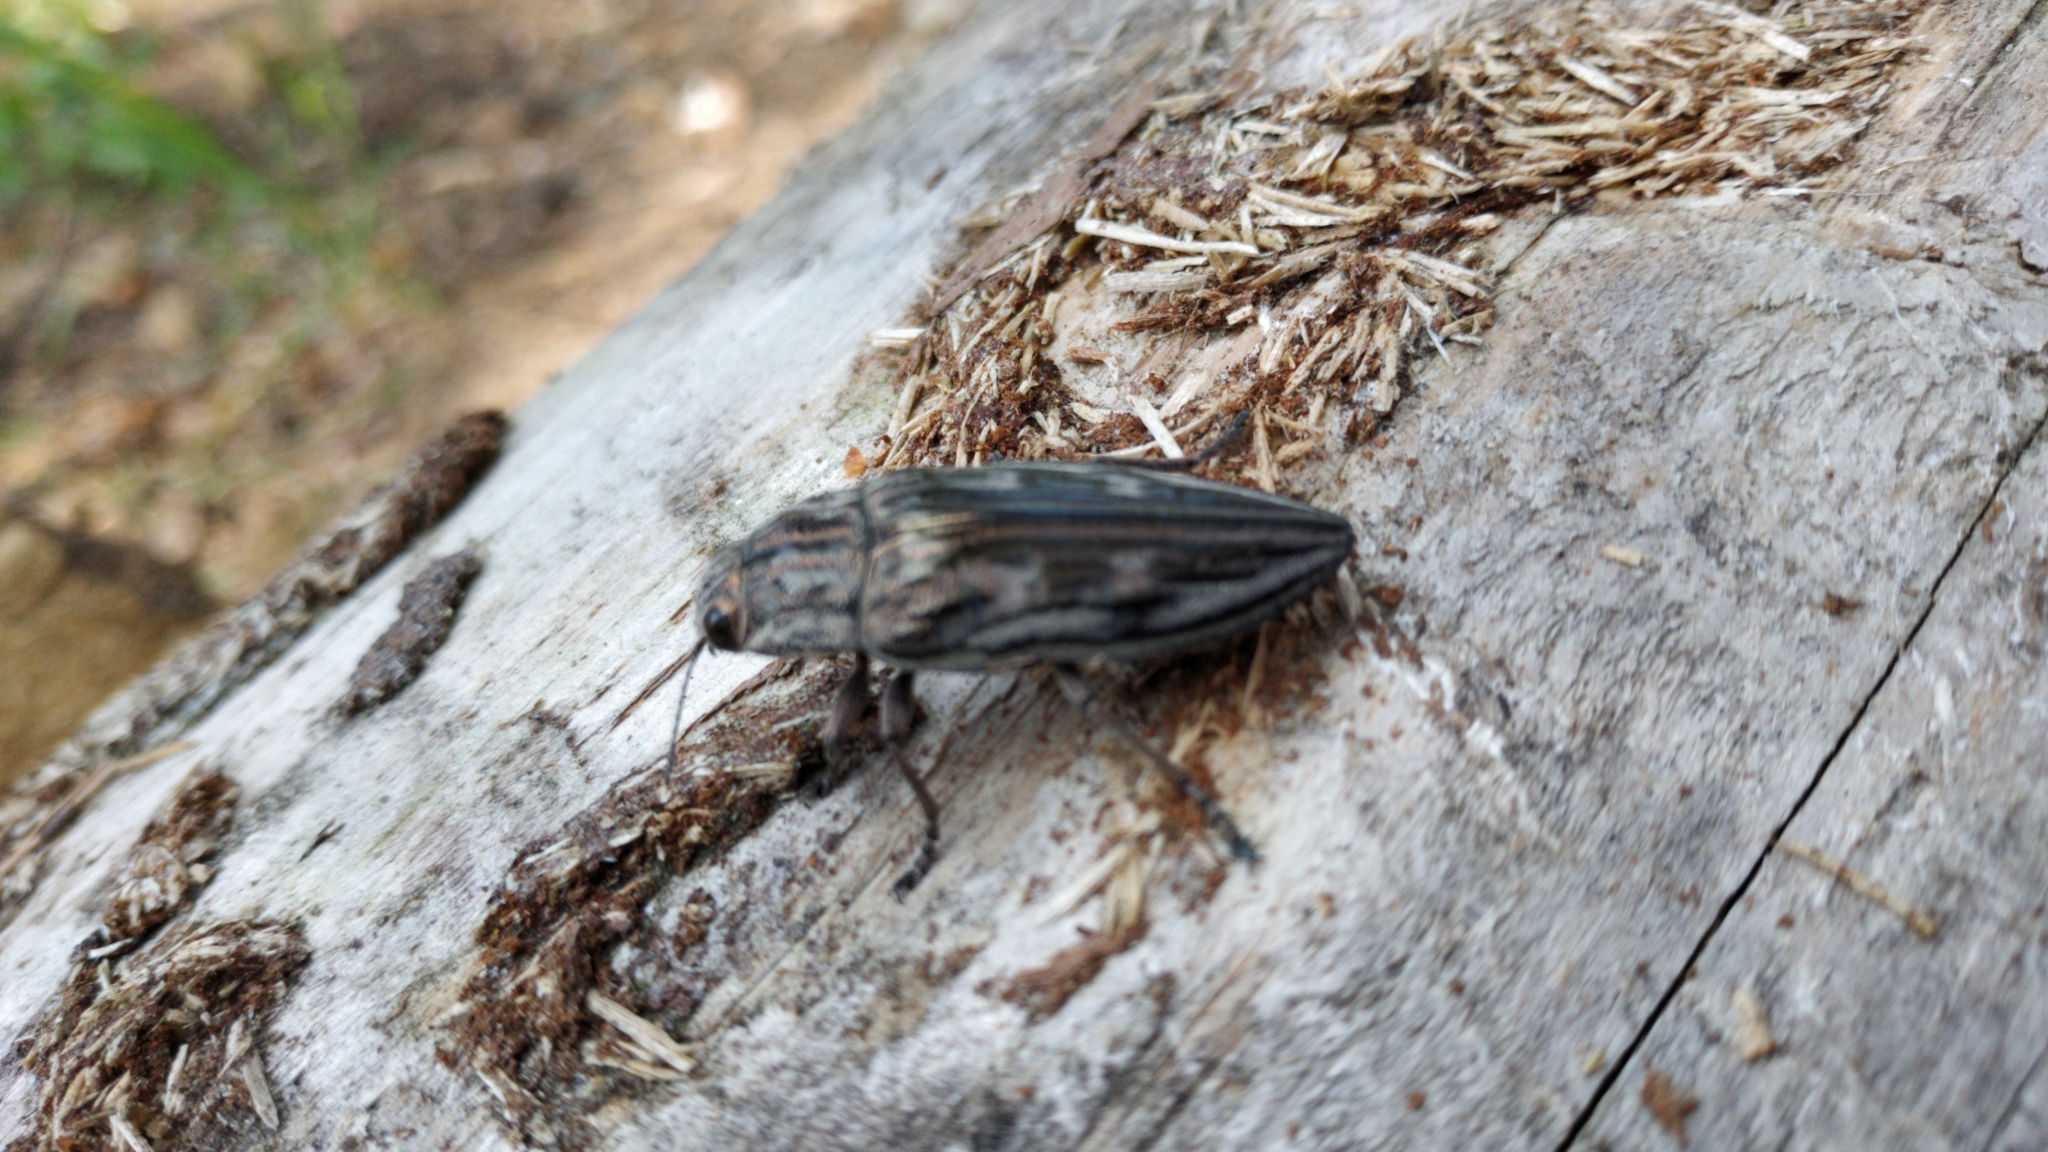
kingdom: Animalia
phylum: Arthropoda
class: Insecta
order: Coleoptera
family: Buprestidae
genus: Chalcophora
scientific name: Chalcophora mariana
